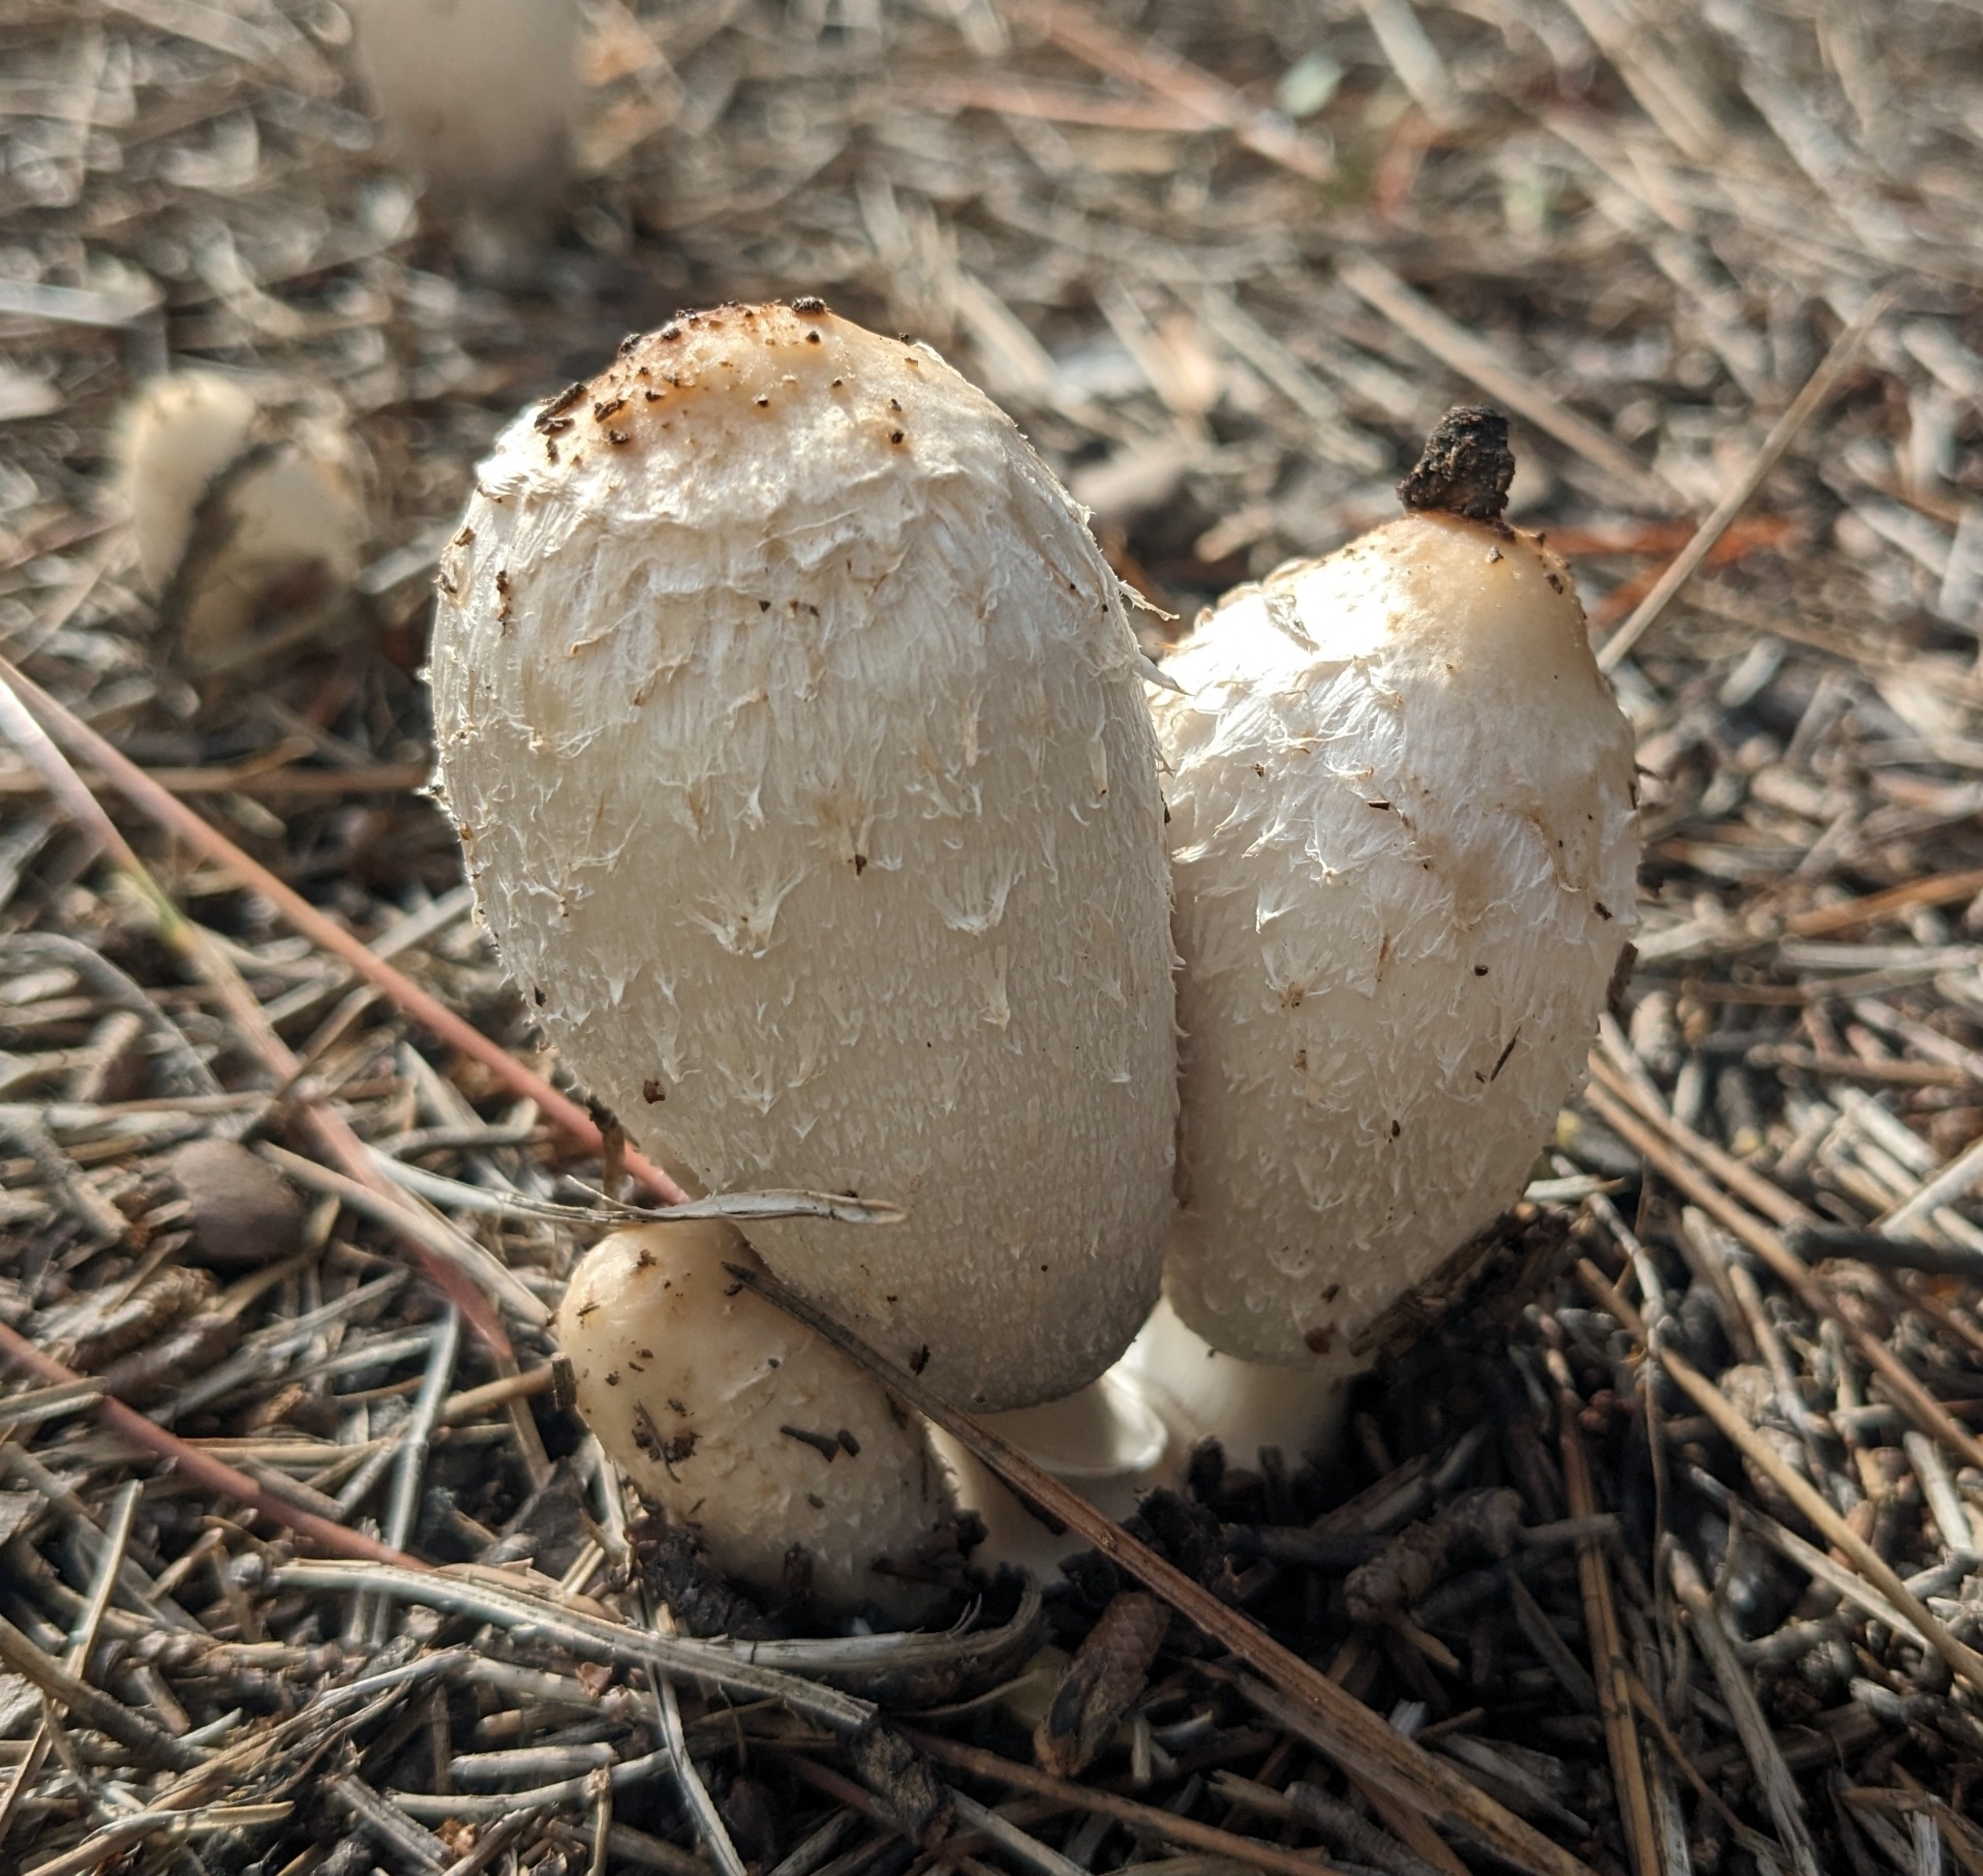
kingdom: Fungi
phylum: Basidiomycota
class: Agaricomycetes
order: Agaricales
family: Agaricaceae
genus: Coprinus
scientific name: Coprinus comatus
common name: Lawyer's wig
